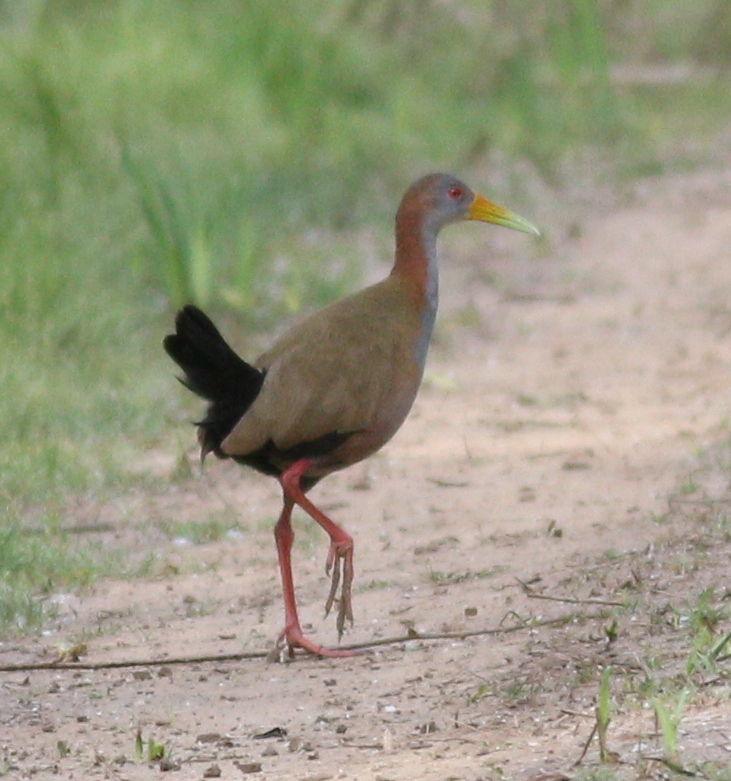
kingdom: Animalia
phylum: Chordata
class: Aves
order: Gruiformes
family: Rallidae
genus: Aramides
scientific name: Aramides ypecaha
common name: Giant wood rail
